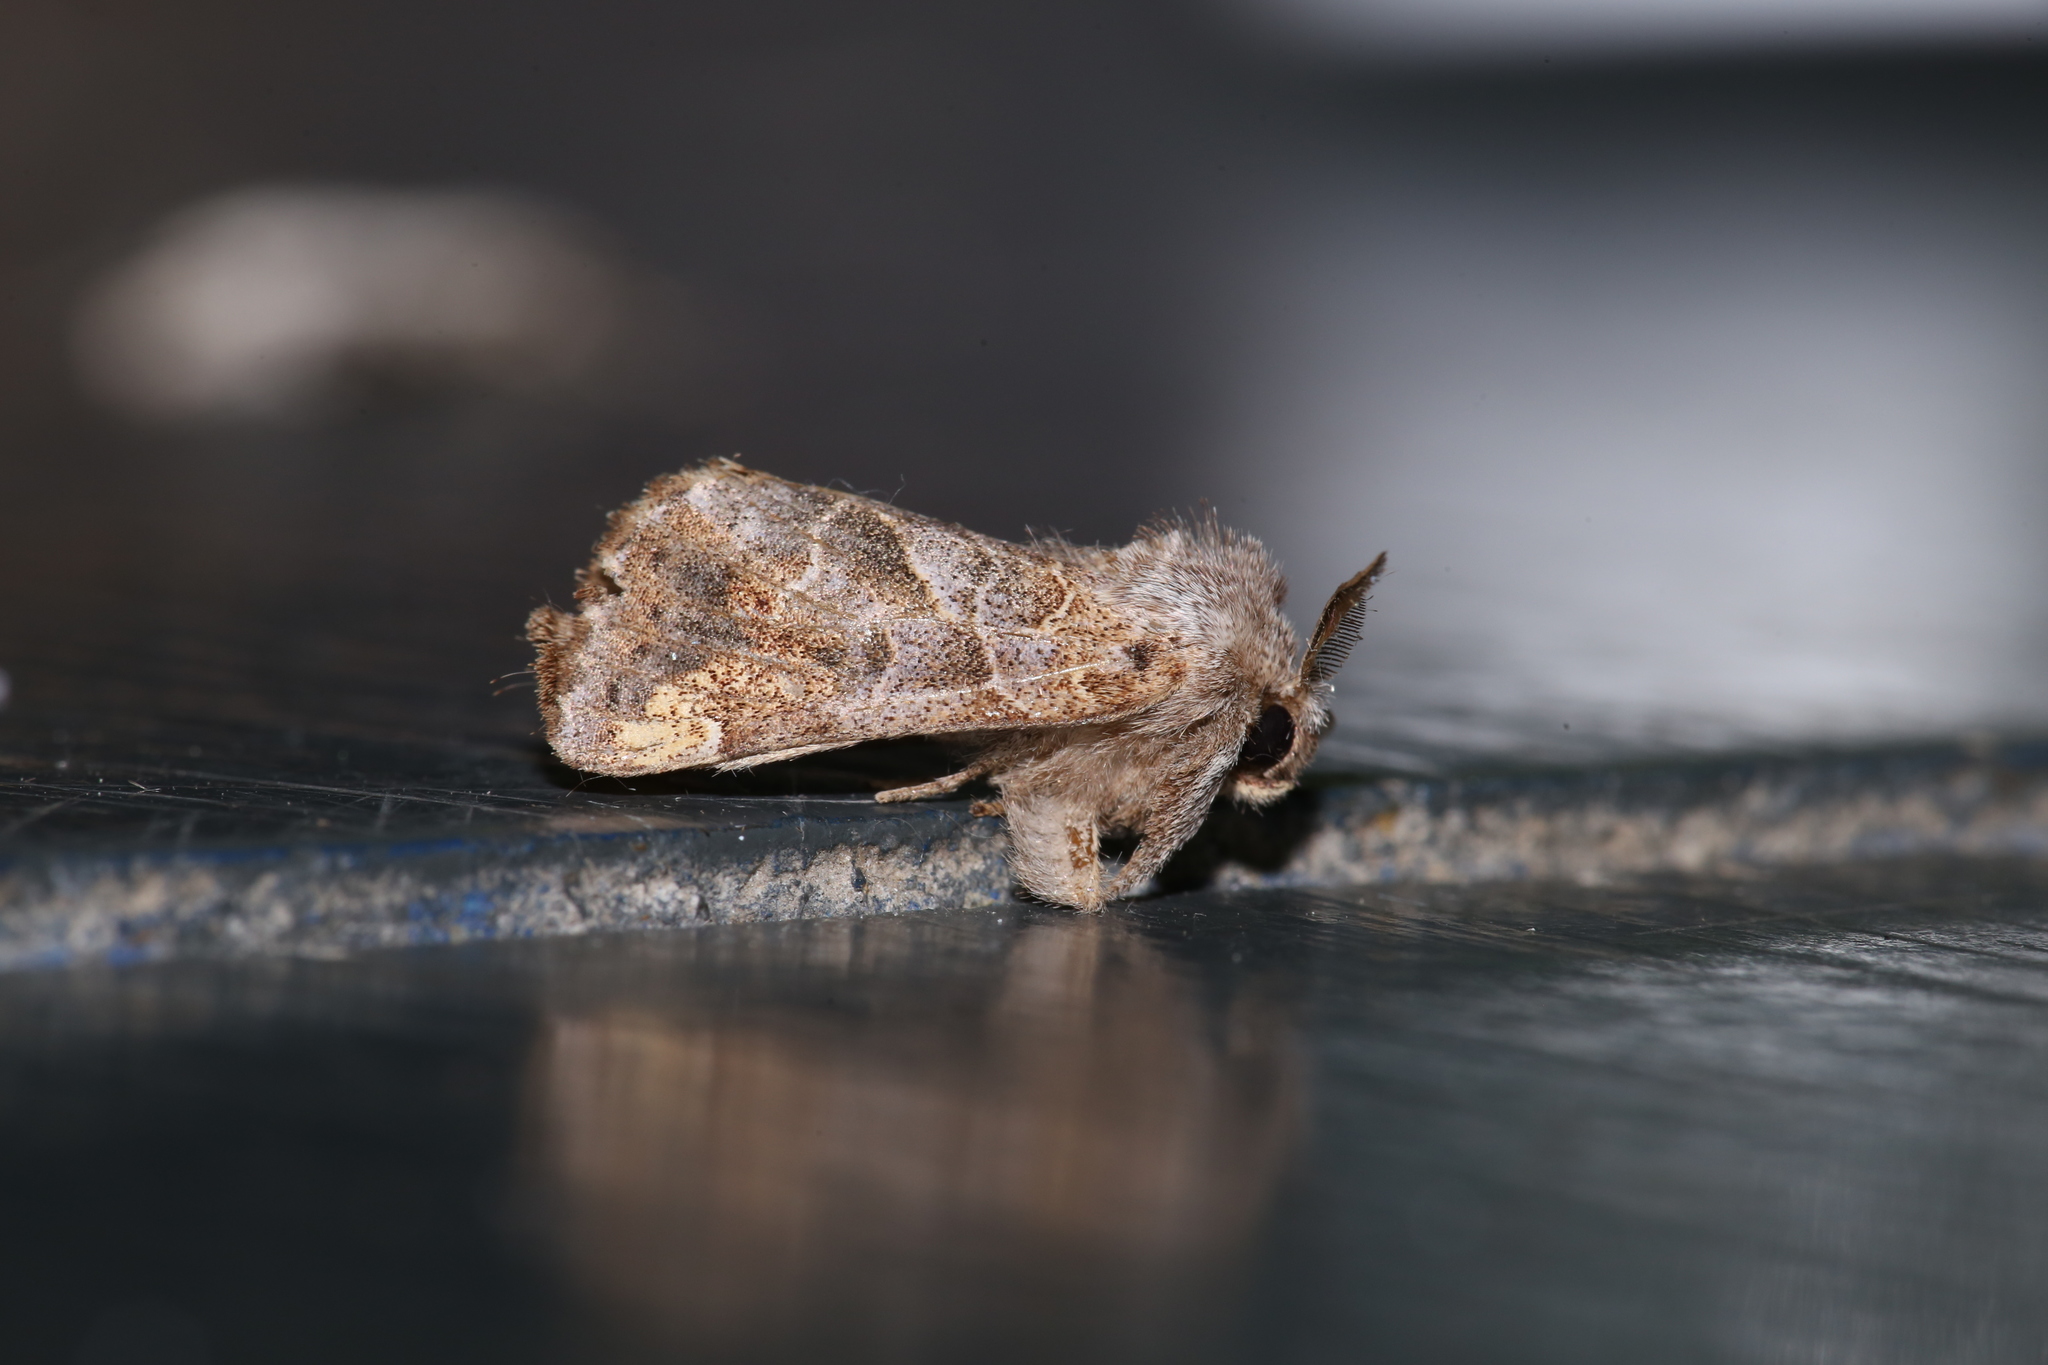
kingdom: Animalia
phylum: Arthropoda
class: Insecta
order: Lepidoptera
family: Notodontidae
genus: Clostera
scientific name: Clostera strigosa
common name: Striped chocolate-tip moth
